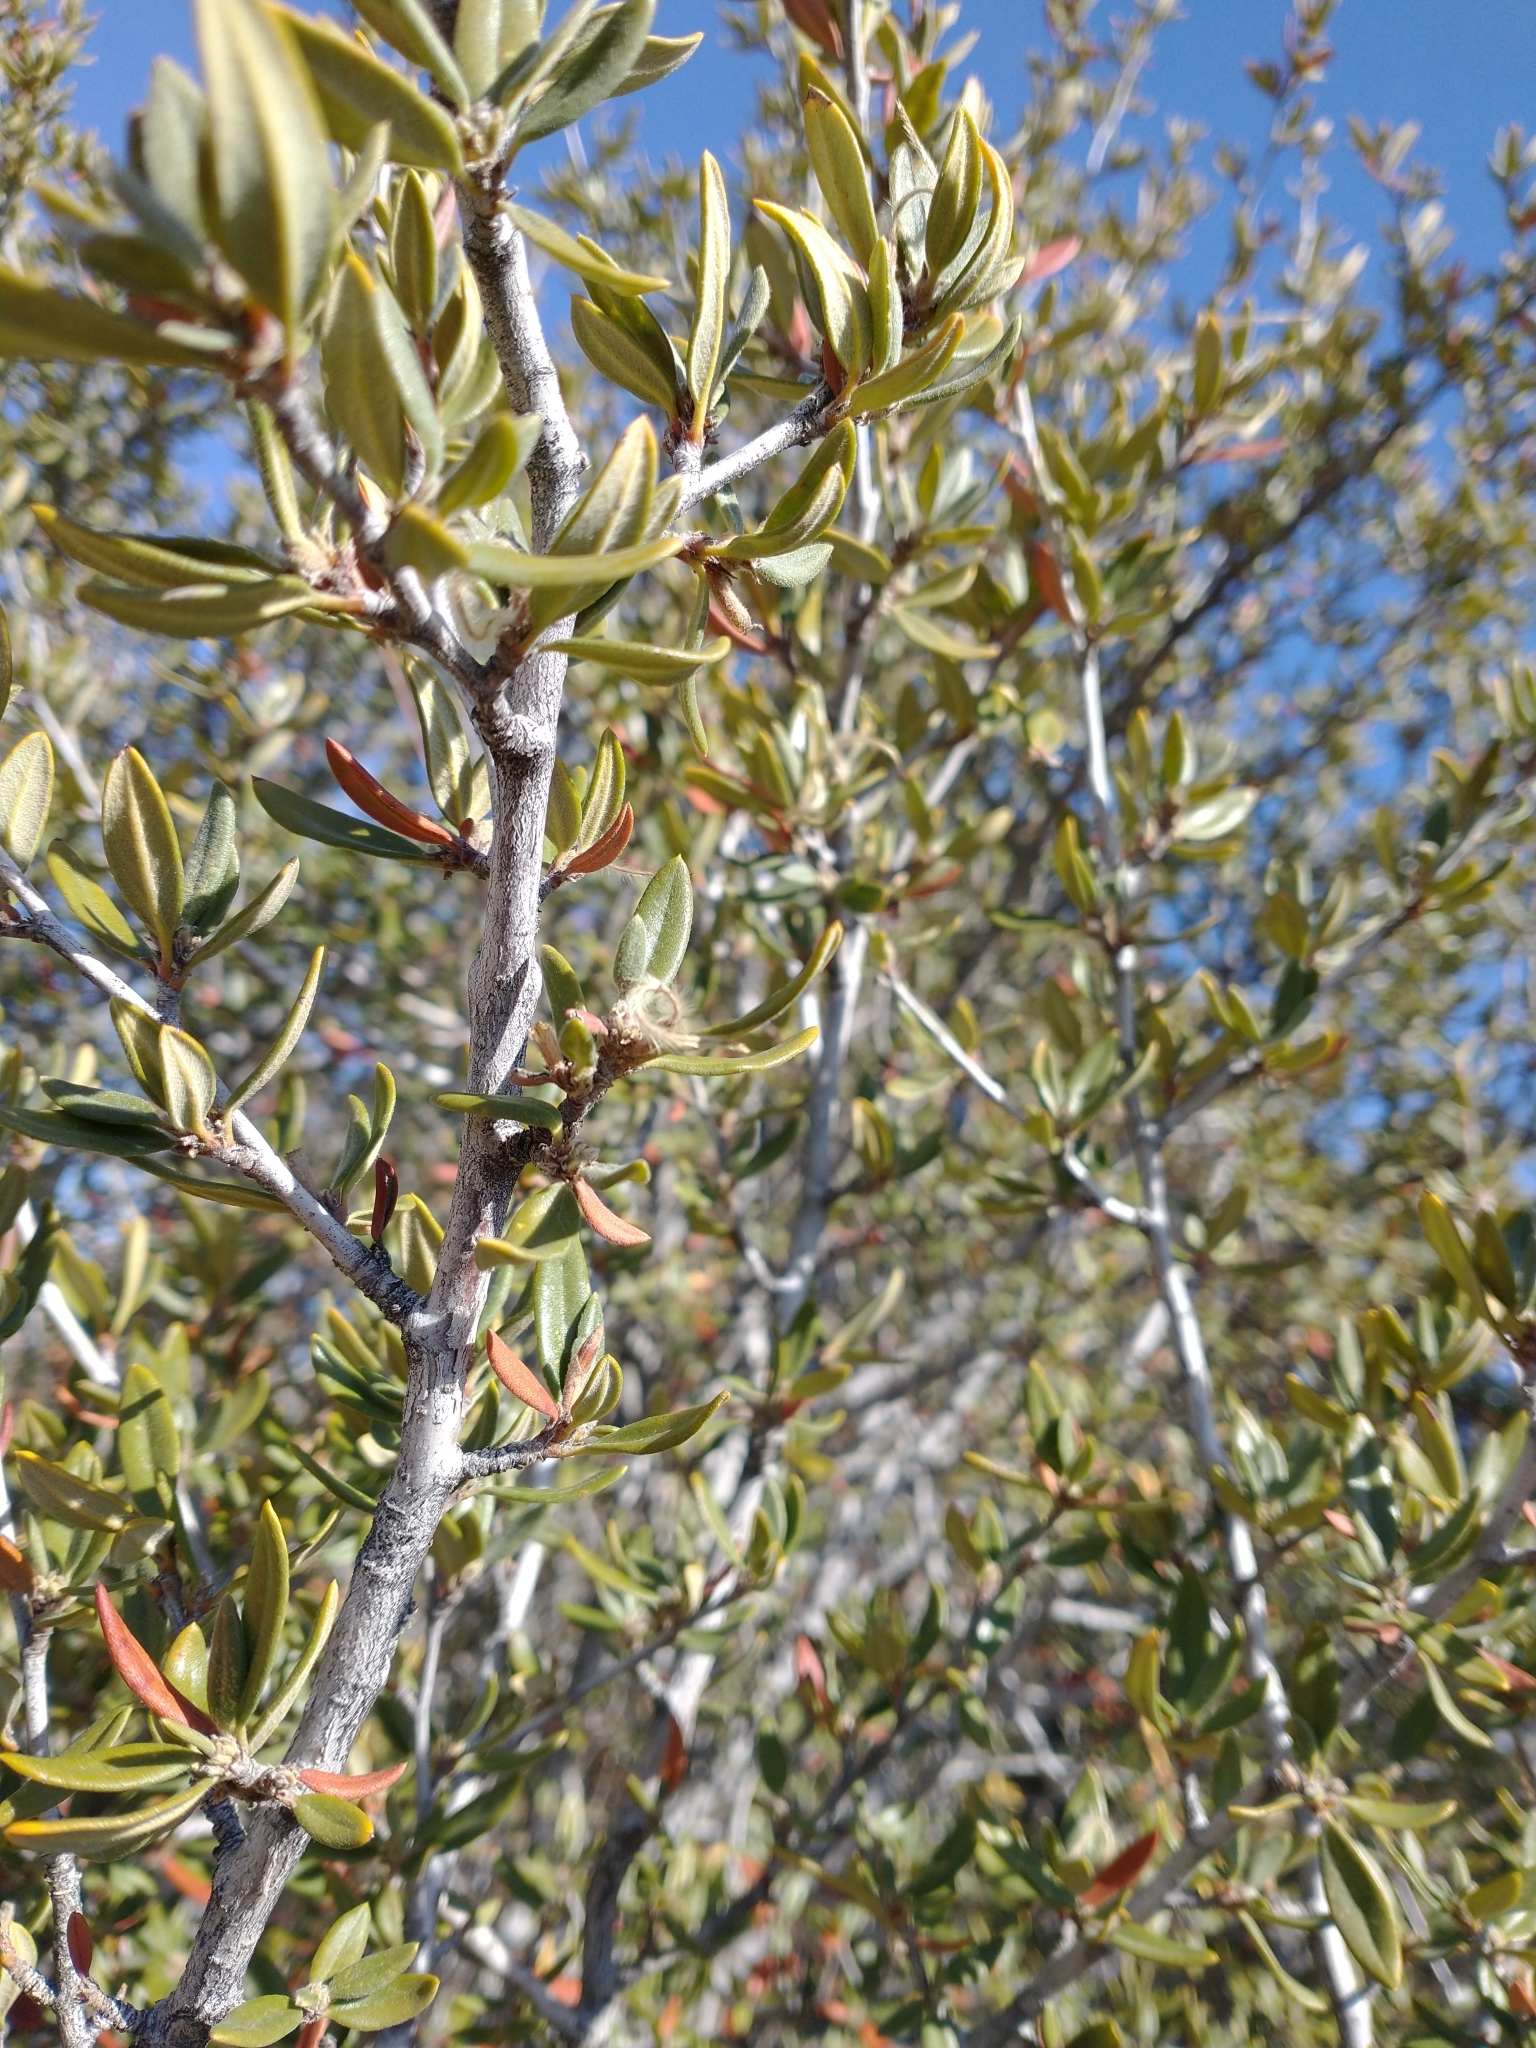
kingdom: Plantae
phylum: Tracheophyta
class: Magnoliopsida
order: Rosales
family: Rosaceae
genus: Cercocarpus
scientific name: Cercocarpus ledifolius
